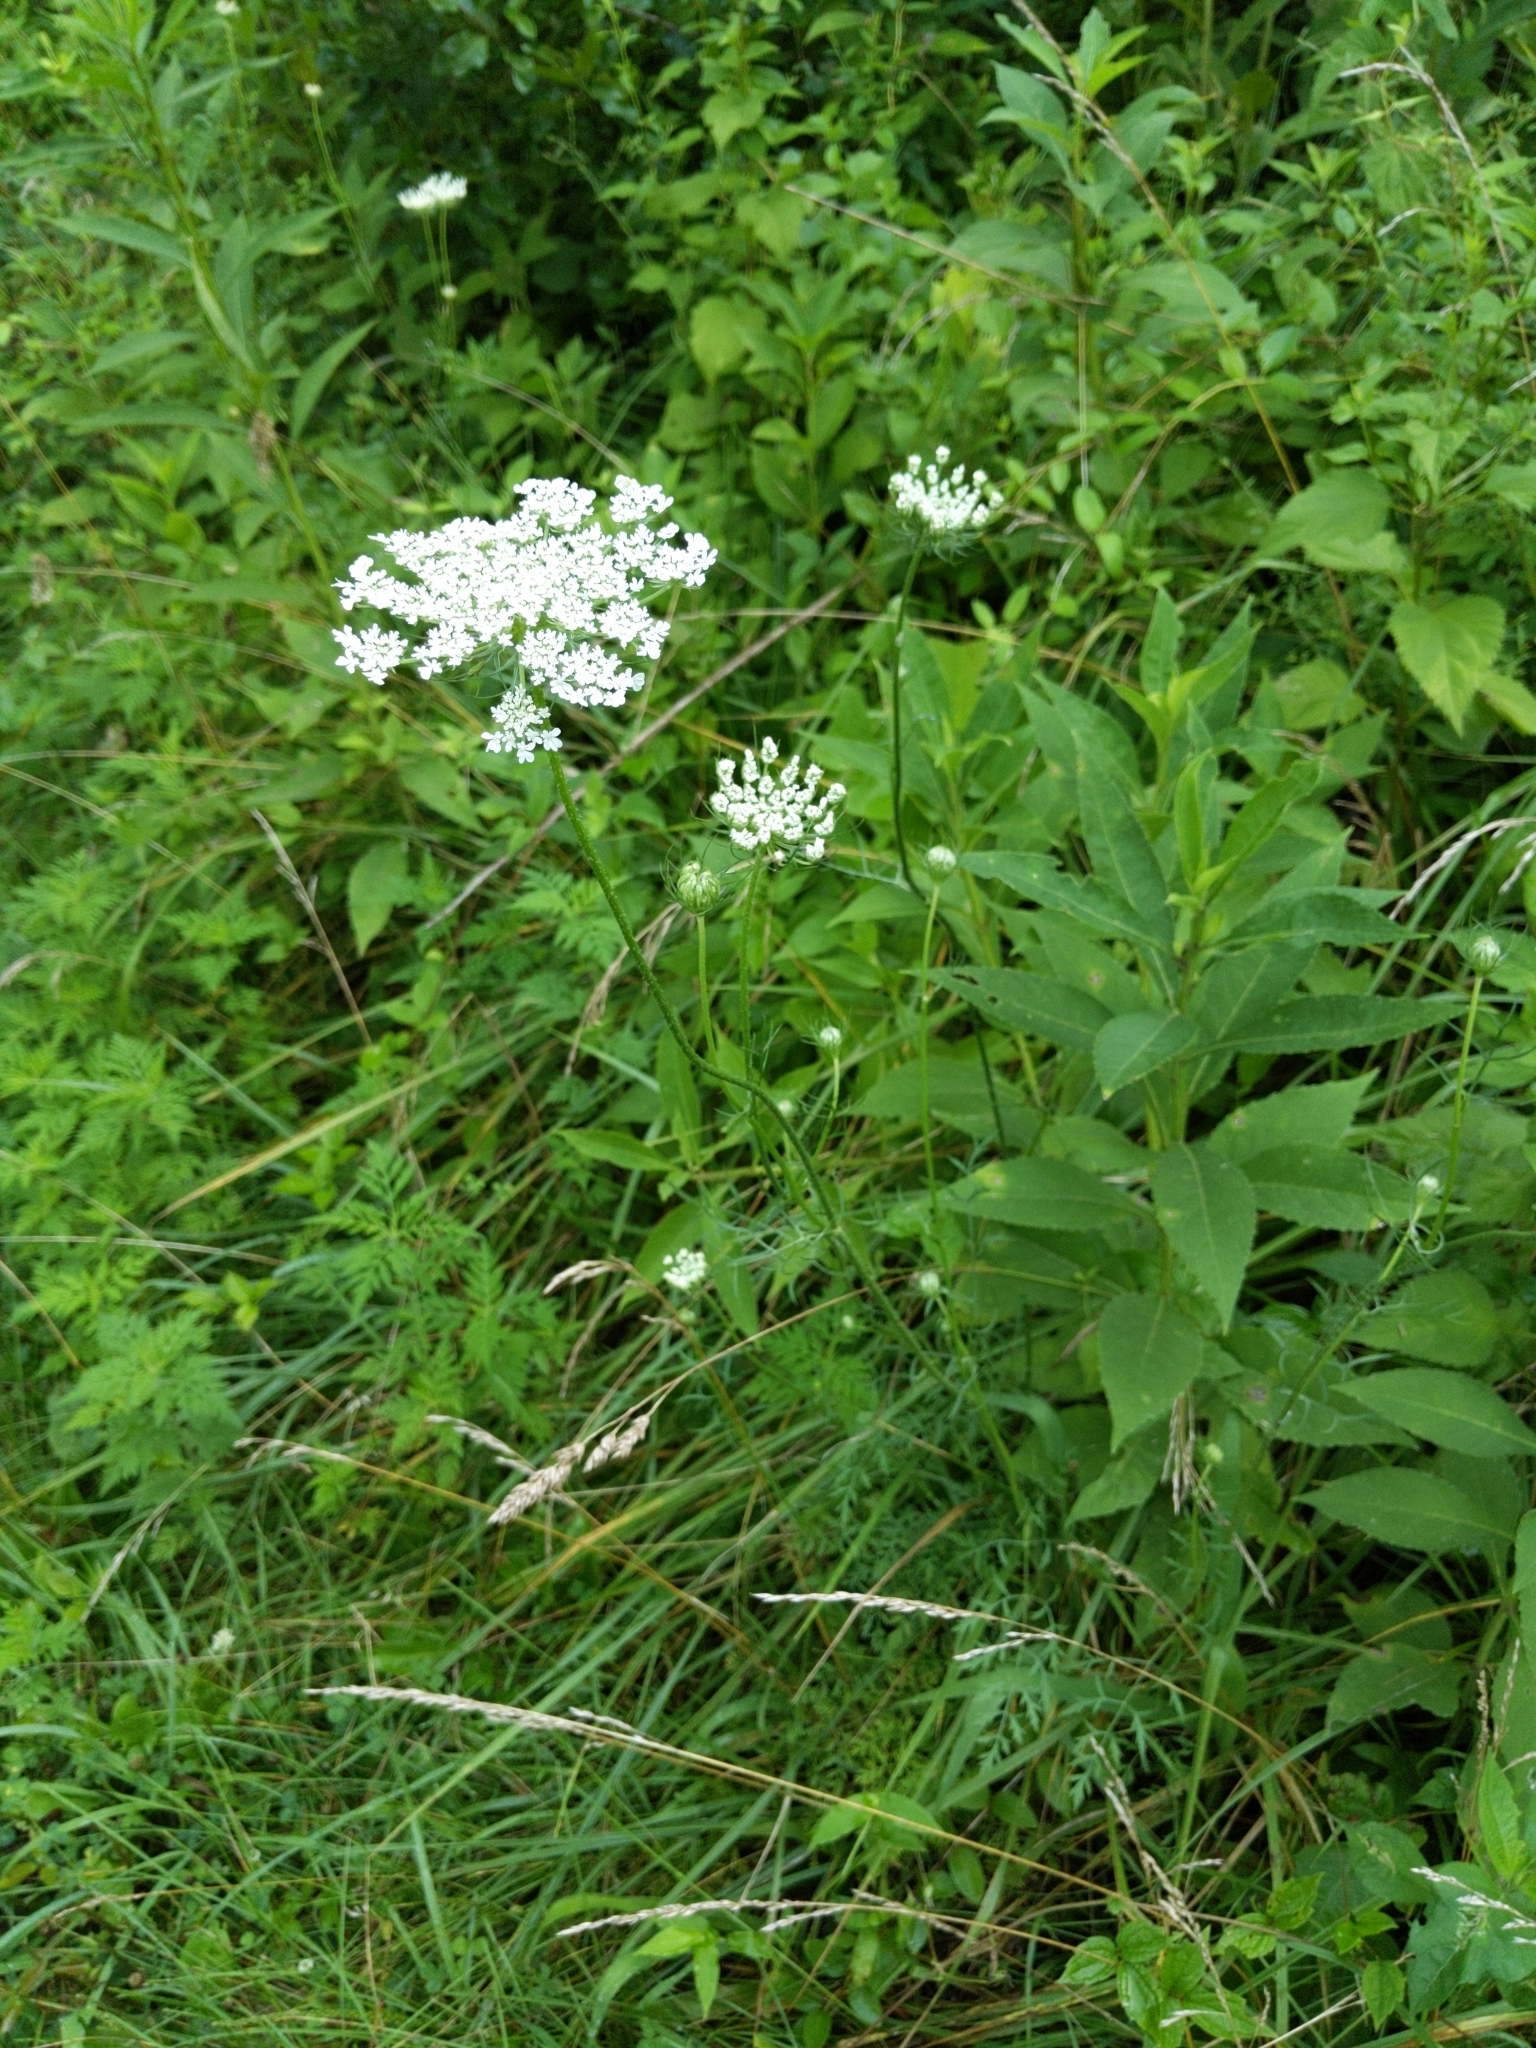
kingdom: Plantae
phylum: Tracheophyta
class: Magnoliopsida
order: Apiales
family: Apiaceae
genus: Daucus
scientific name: Daucus carota
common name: Wild carrot
